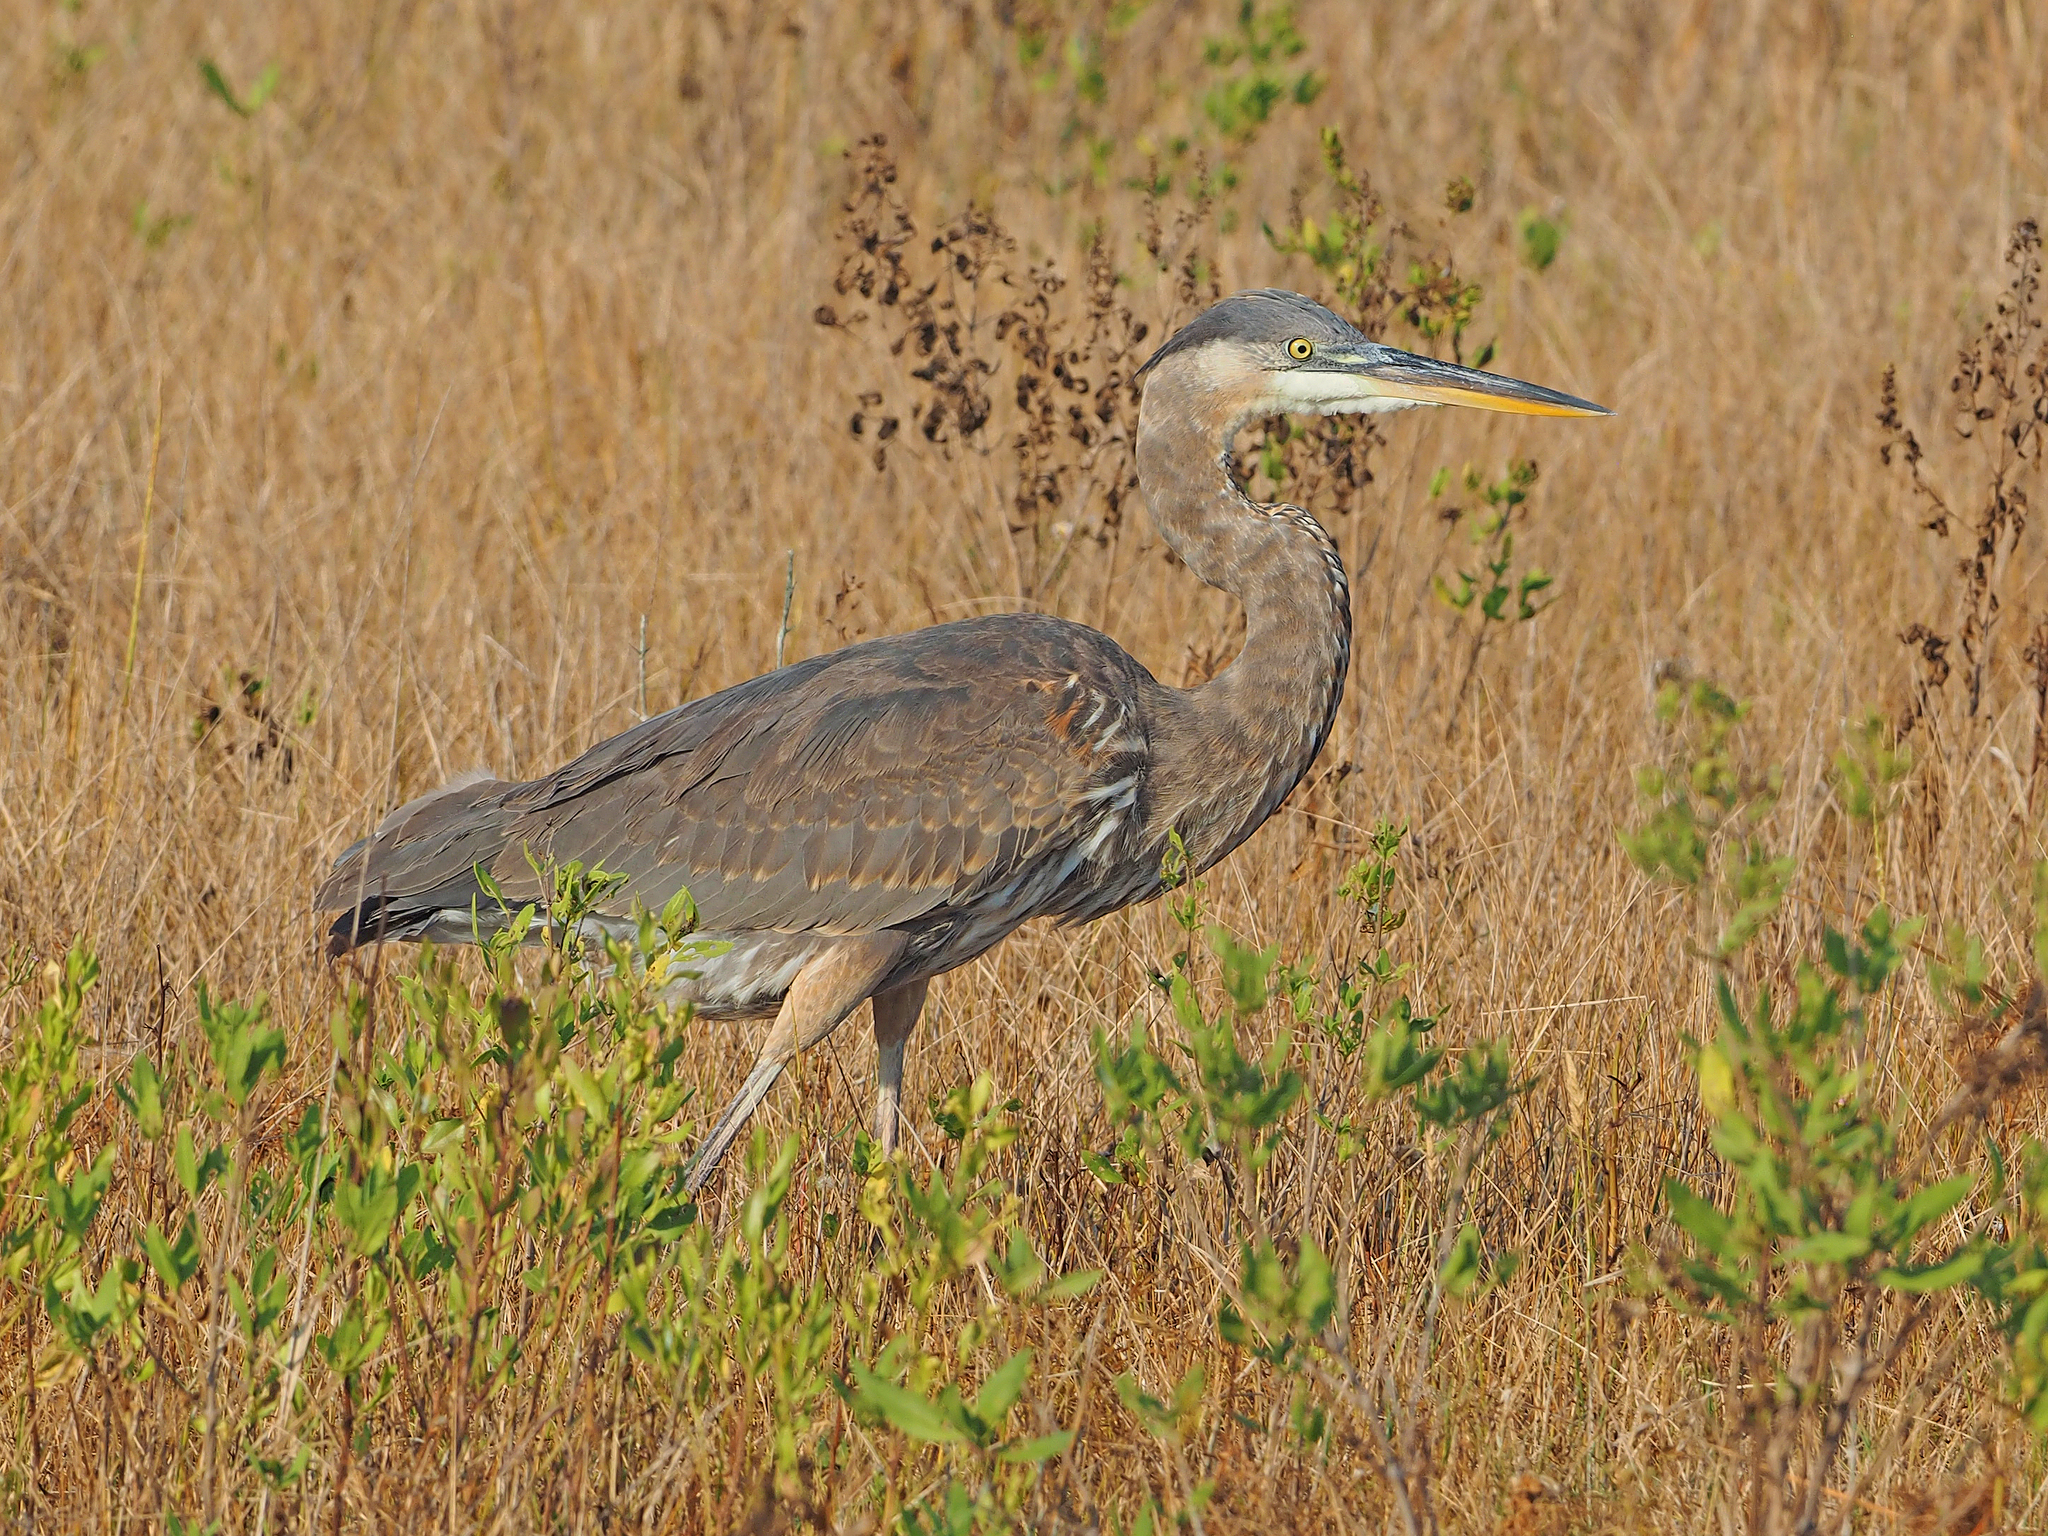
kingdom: Animalia
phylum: Chordata
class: Aves
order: Pelecaniformes
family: Ardeidae
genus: Ardea
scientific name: Ardea herodias
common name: Great blue heron
